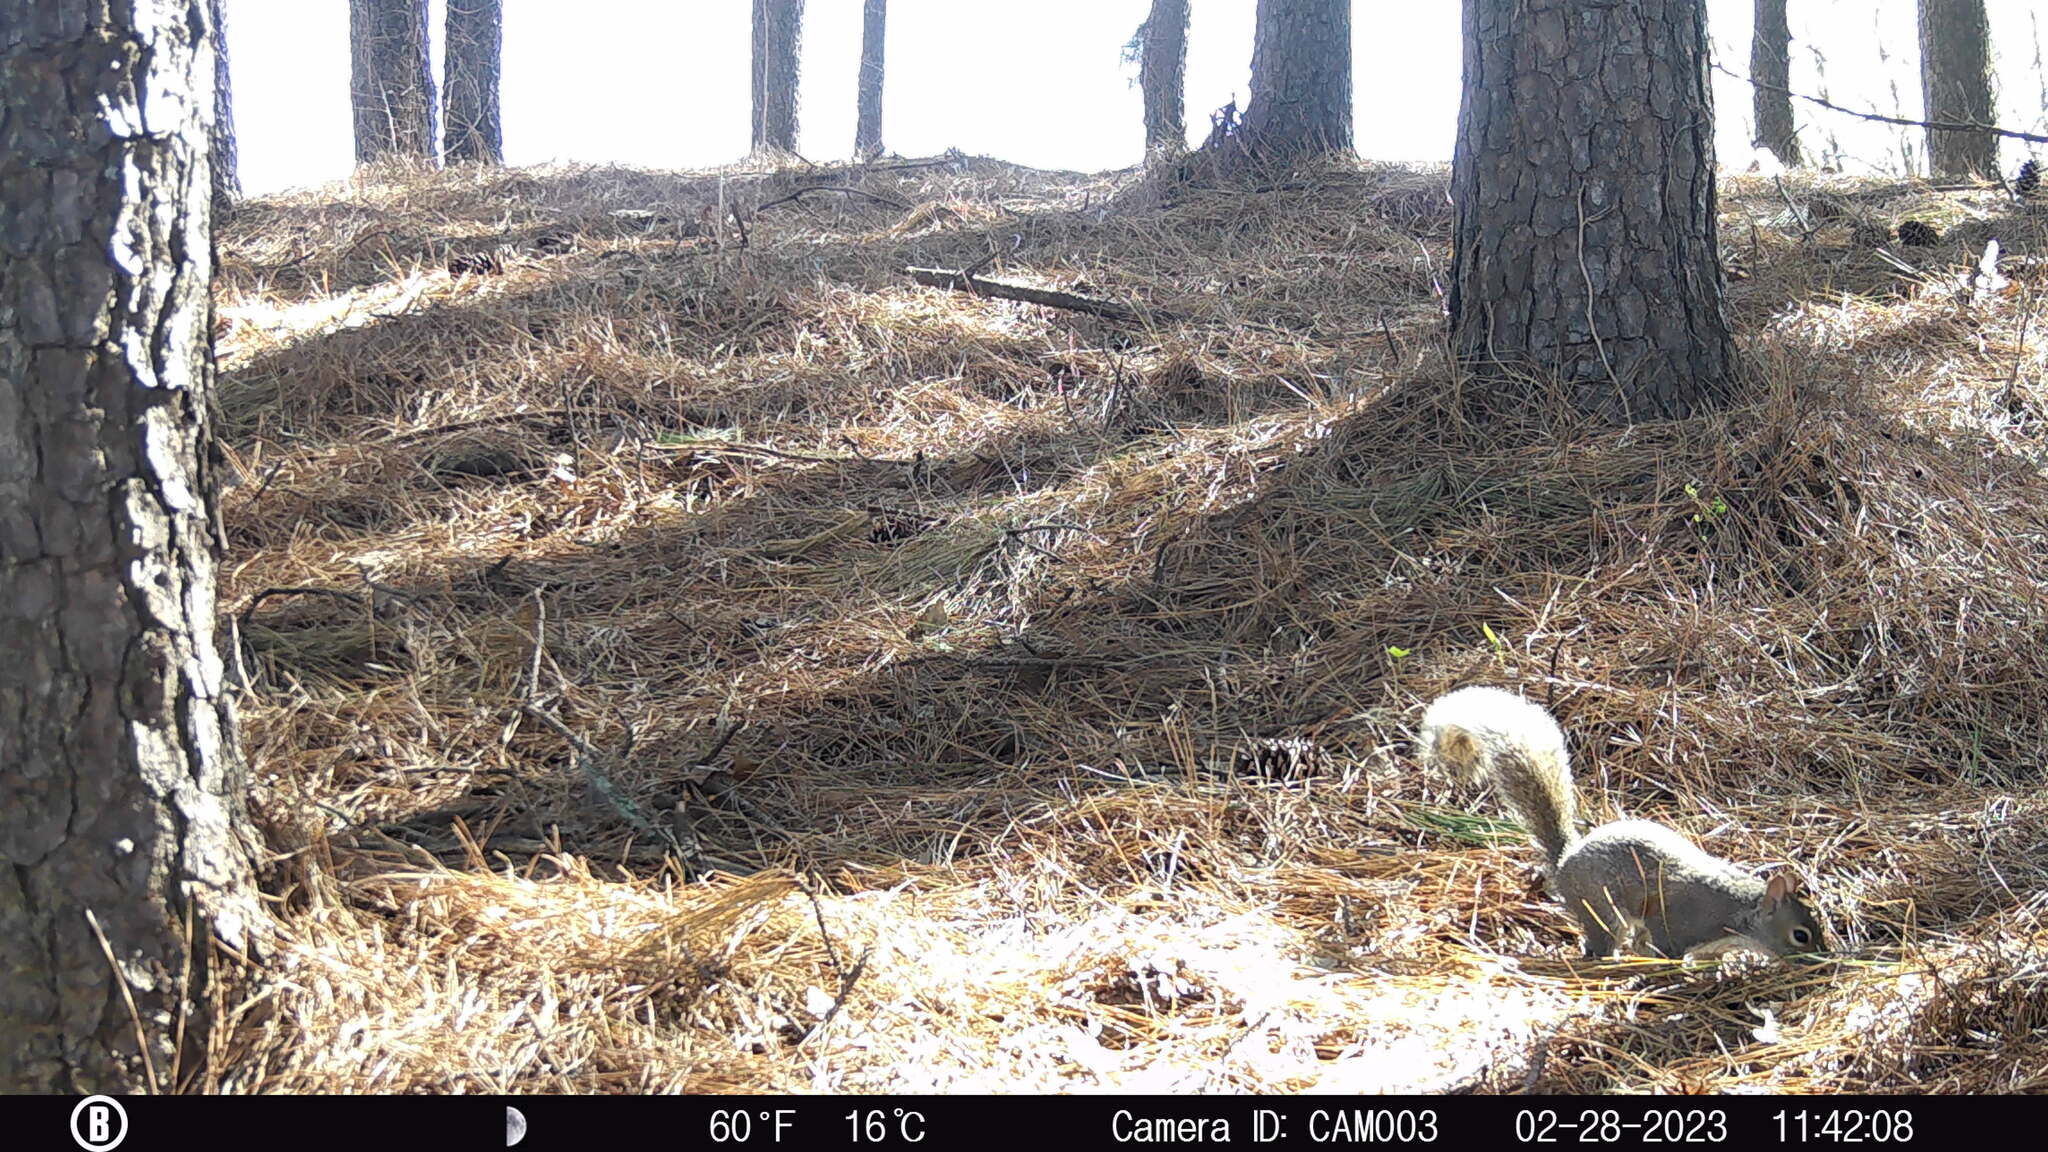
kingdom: Animalia
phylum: Chordata
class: Mammalia
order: Rodentia
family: Sciuridae
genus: Sciurus
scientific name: Sciurus carolinensis
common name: Eastern gray squirrel
